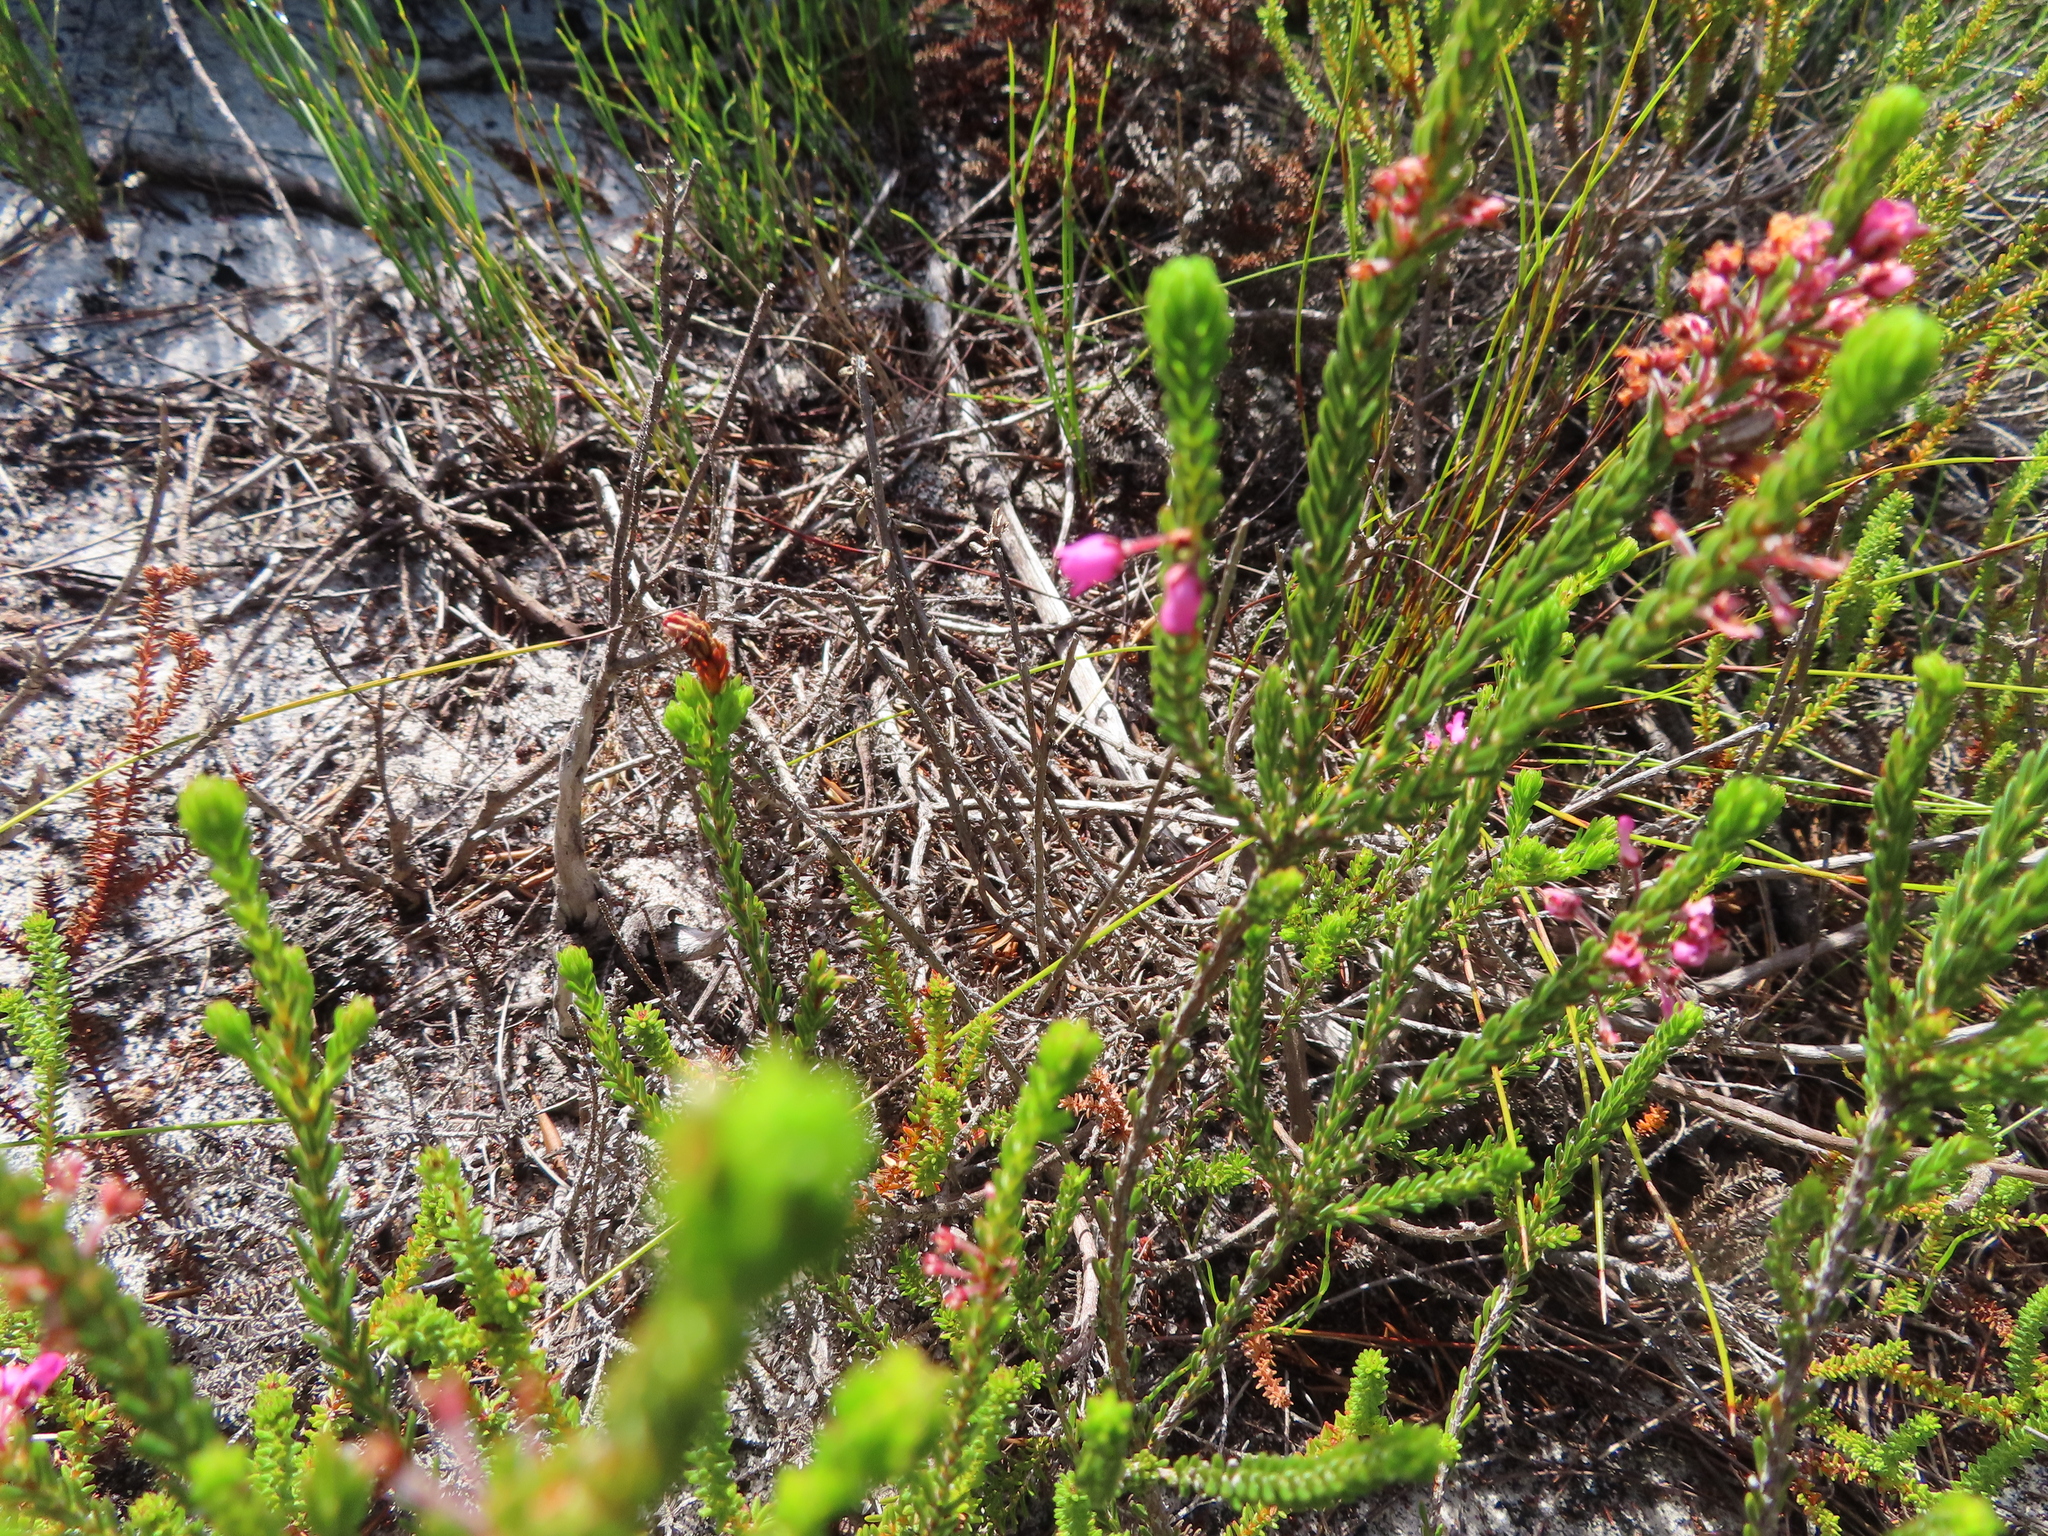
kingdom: Plantae
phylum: Tracheophyta
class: Magnoliopsida
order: Ericales
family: Ericaceae
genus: Erica
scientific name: Erica pulchella
